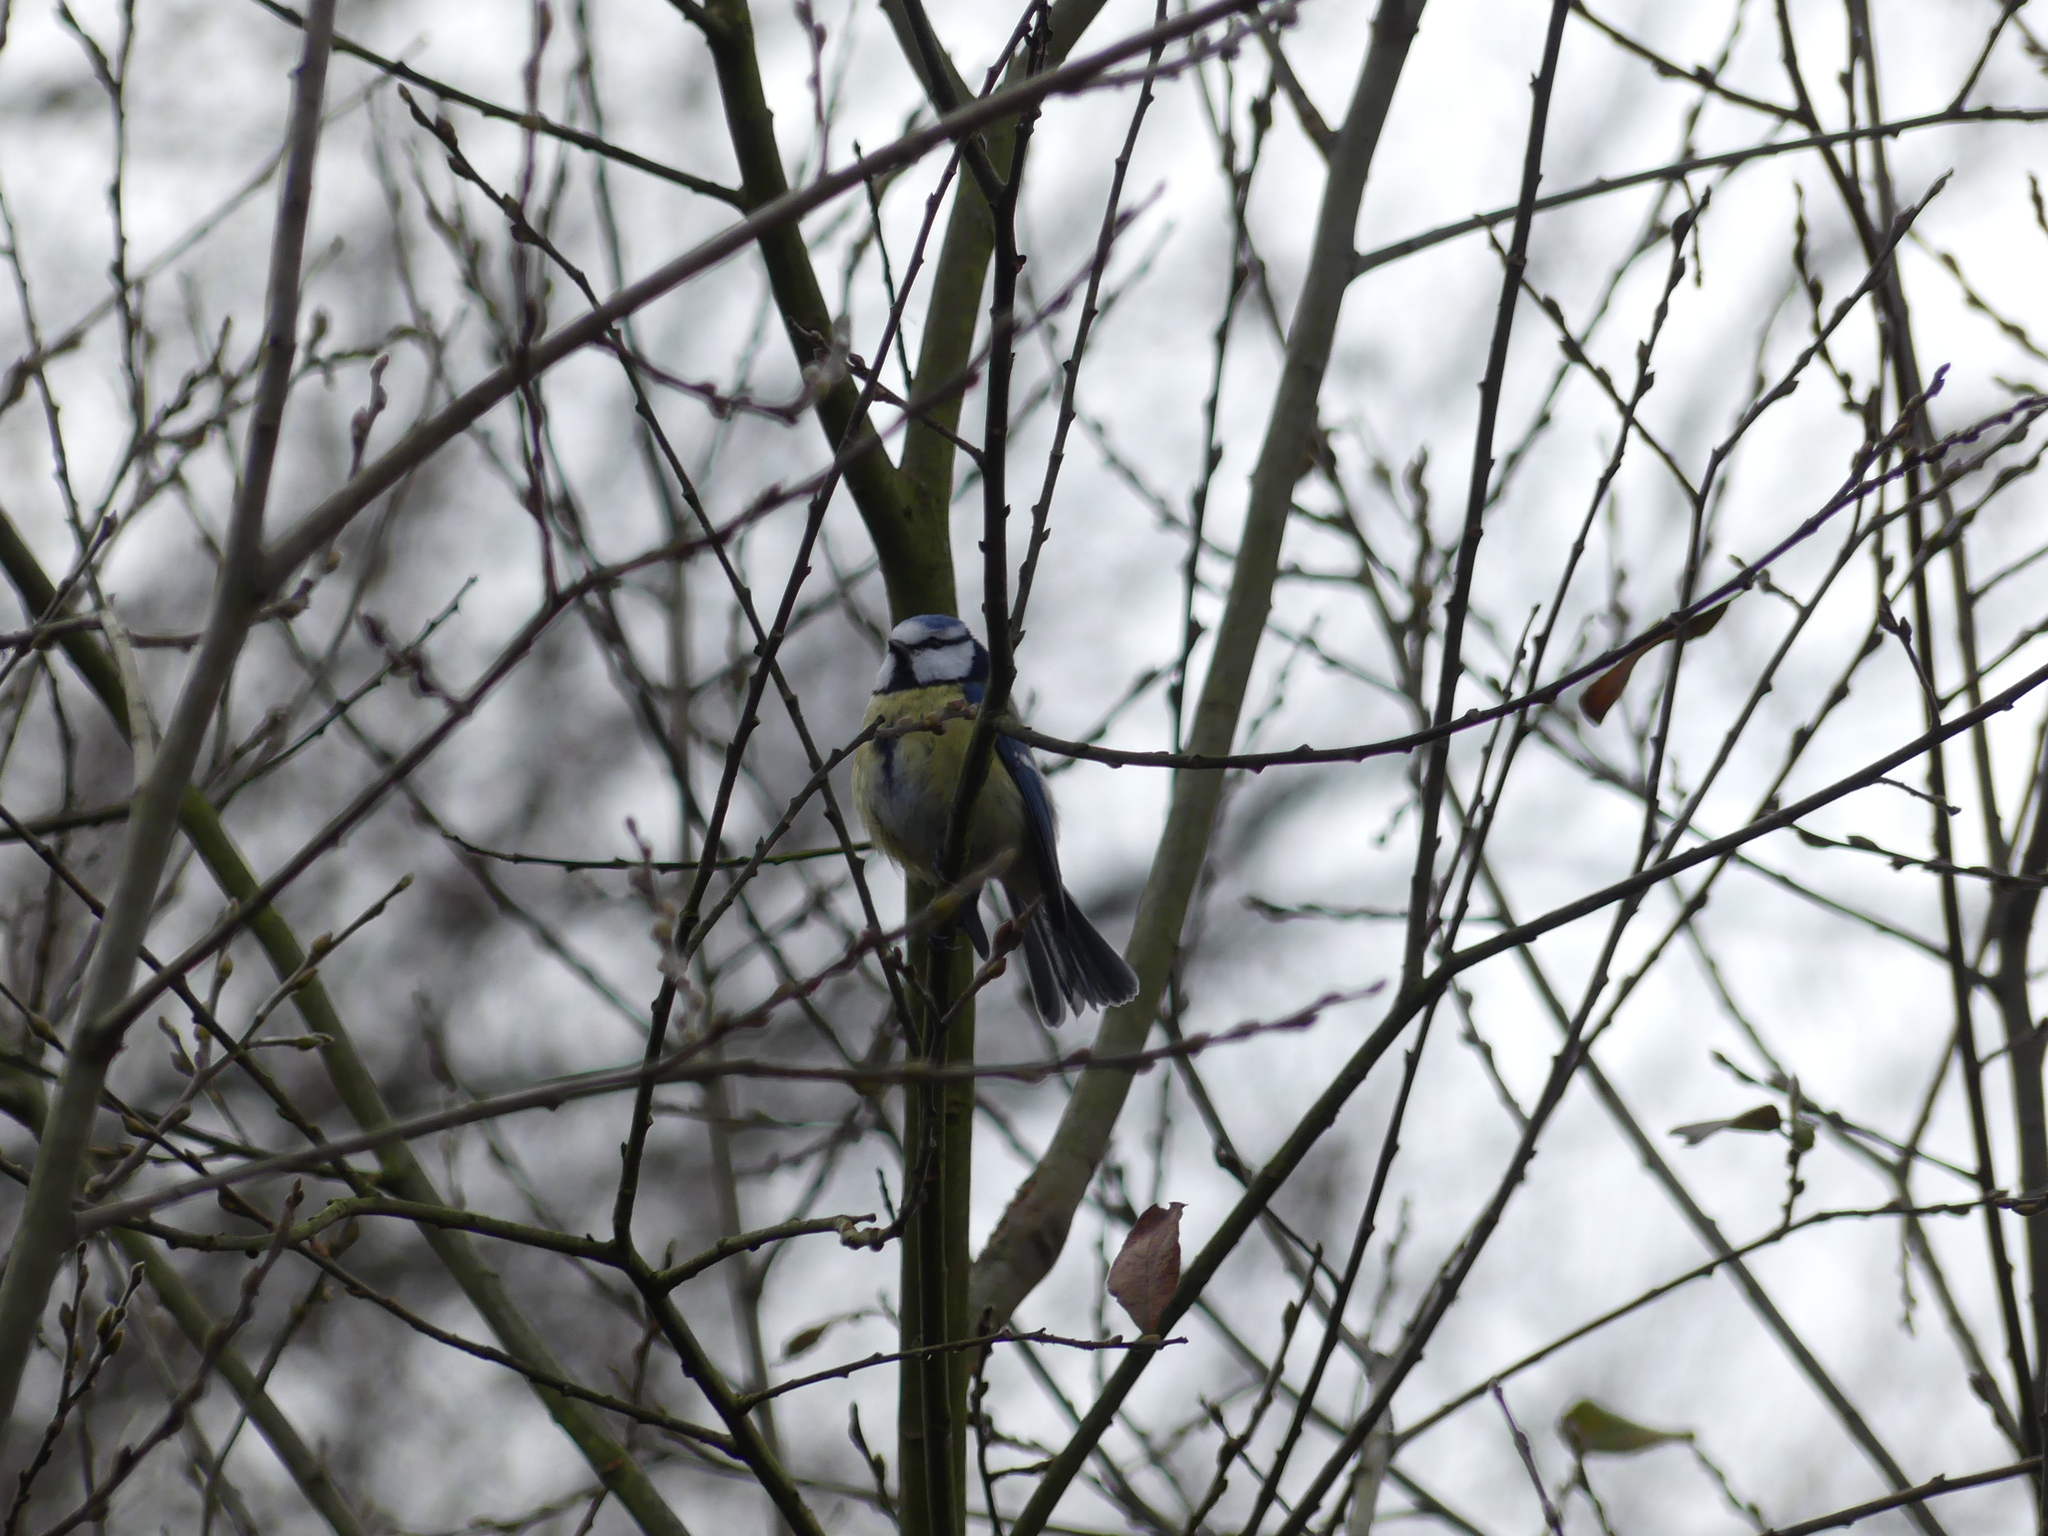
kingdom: Animalia
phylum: Chordata
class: Aves
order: Passeriformes
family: Paridae
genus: Cyanistes
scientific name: Cyanistes caeruleus
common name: Eurasian blue tit
